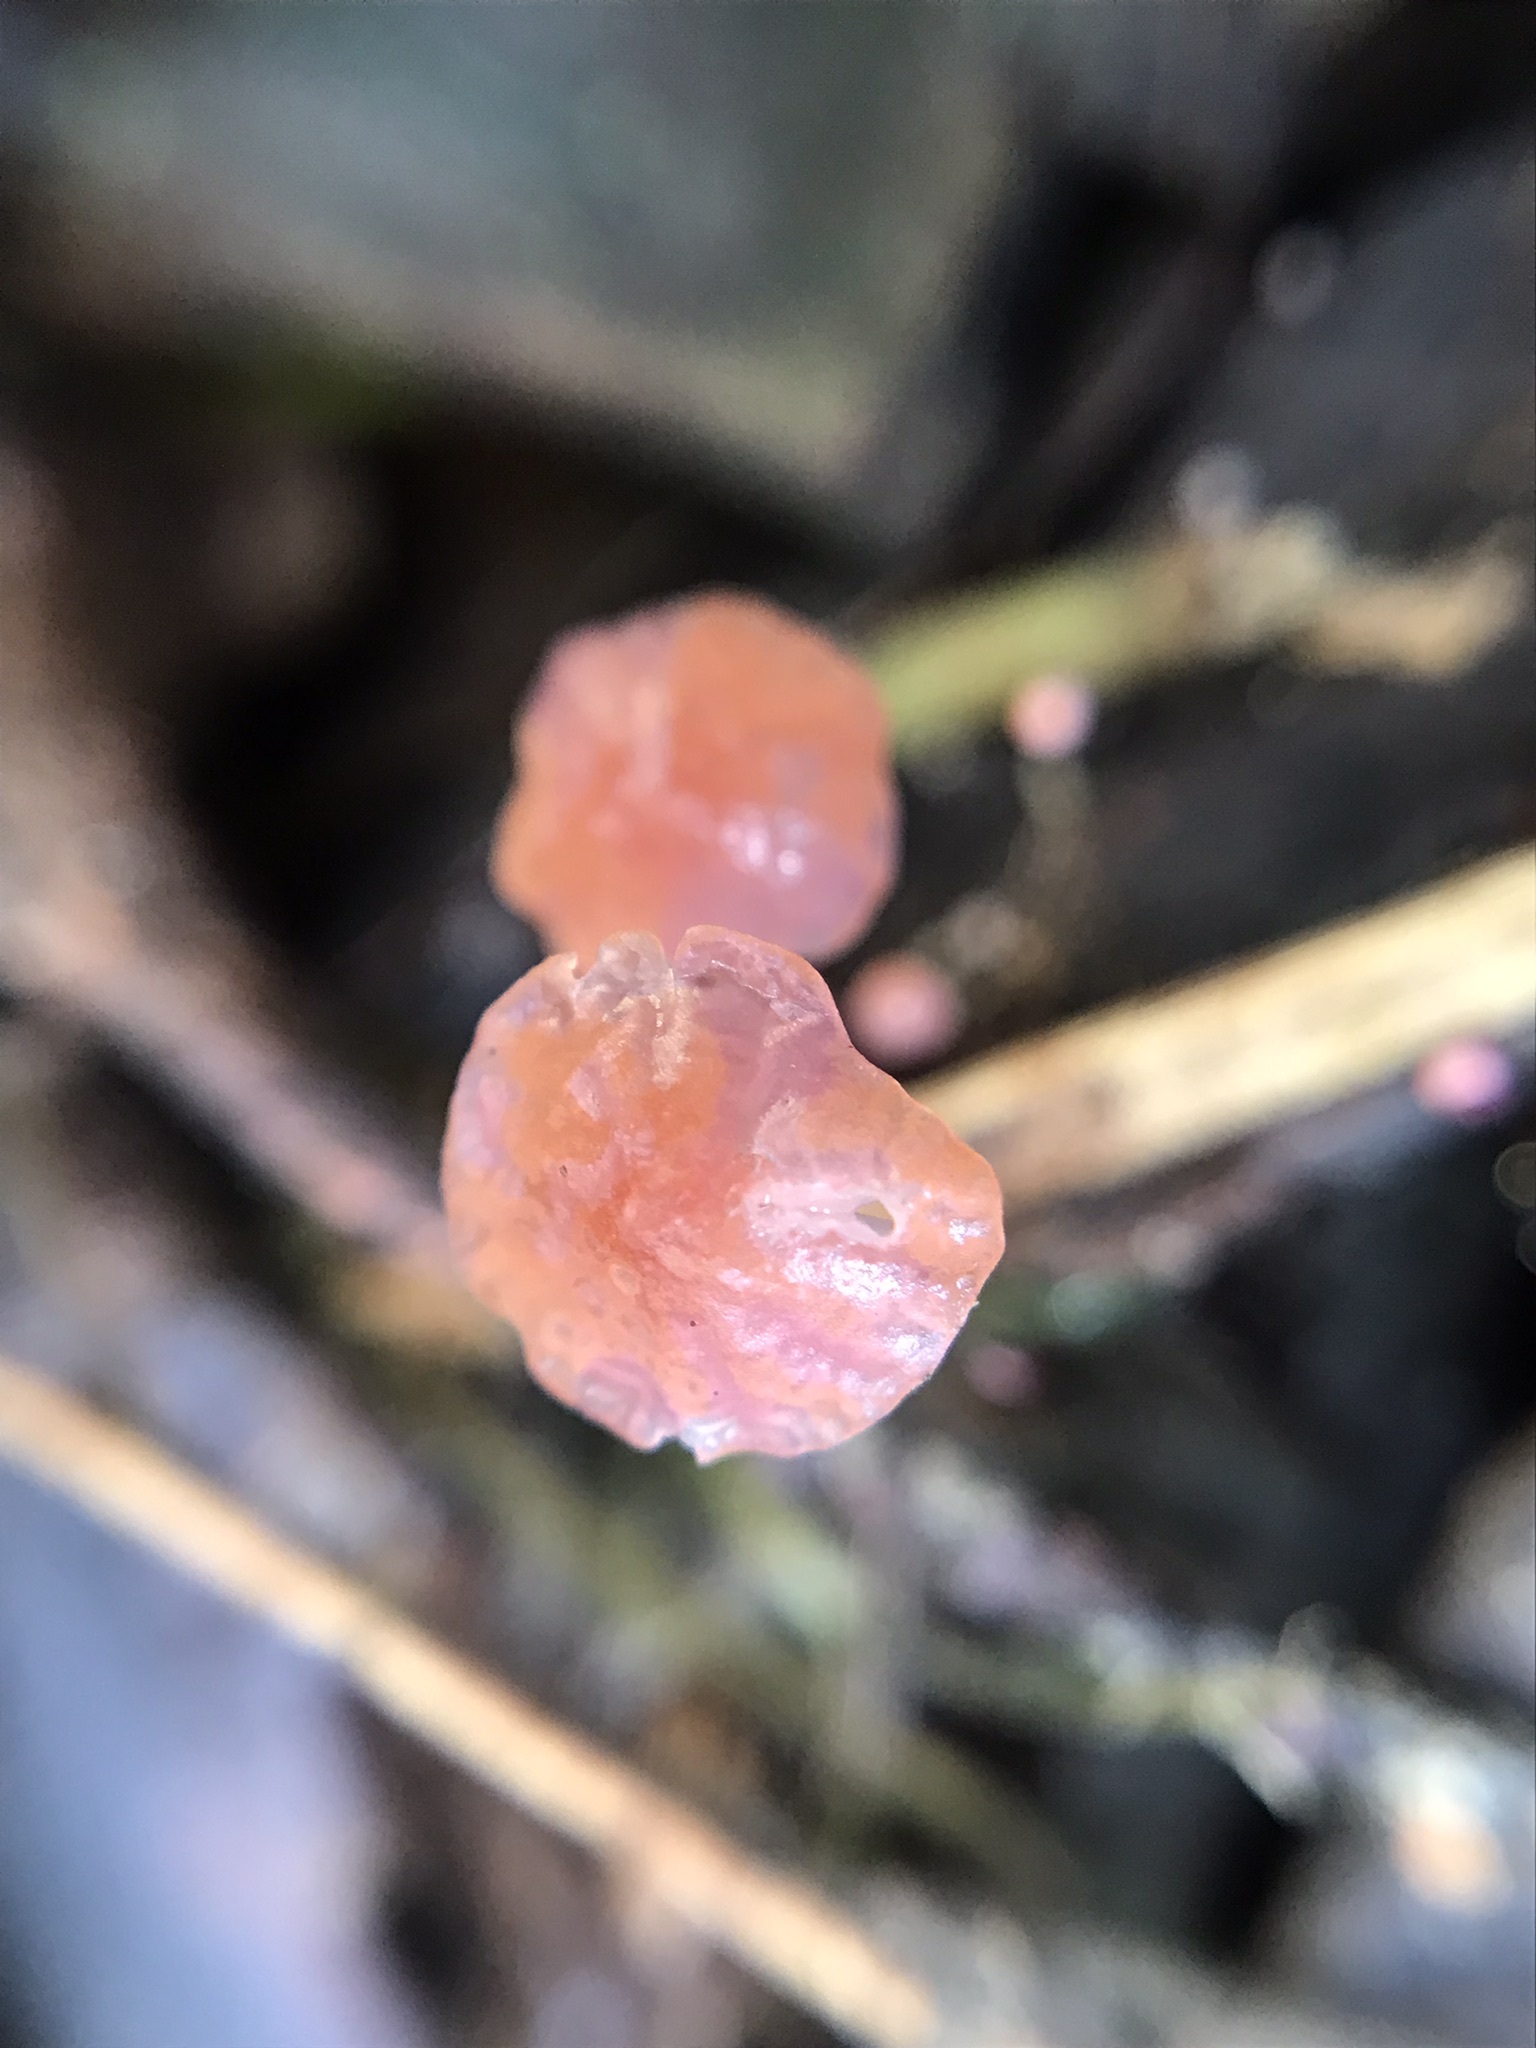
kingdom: Fungi
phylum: Basidiomycota
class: Agaricomycetes
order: Agaricales
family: Marasmiaceae
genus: Marasmius
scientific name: Marasmius haematocephalus
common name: Purple pinwheel
